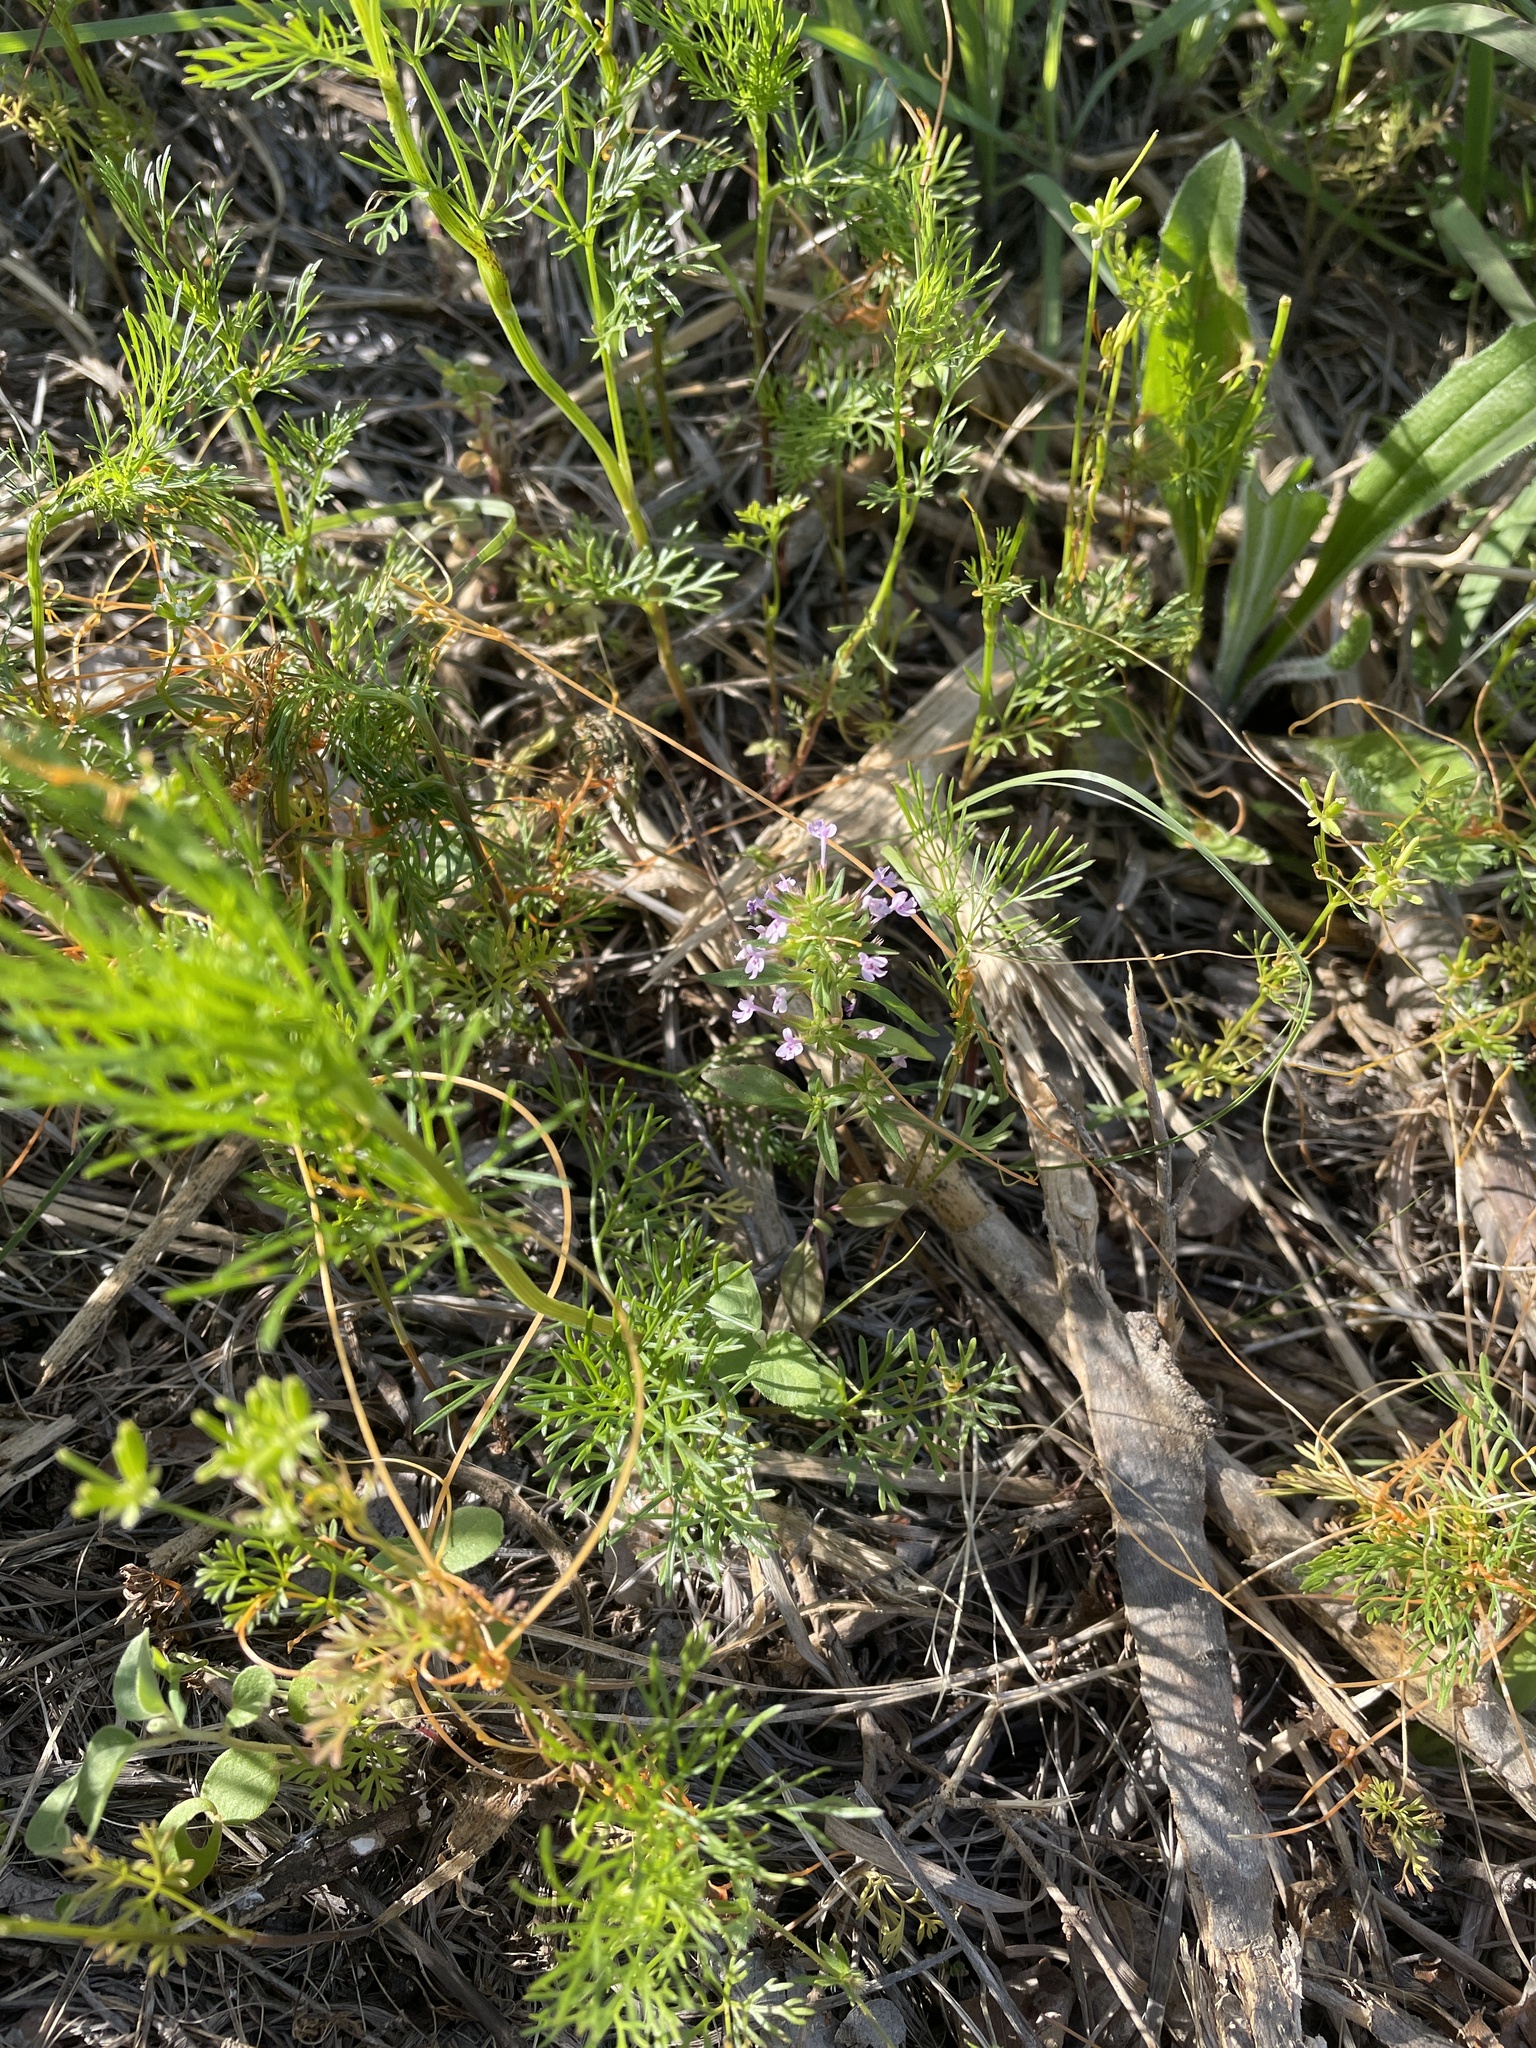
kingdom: Plantae
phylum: Tracheophyta
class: Magnoliopsida
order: Lamiales
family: Lamiaceae
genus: Hedeoma
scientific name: Hedeoma acinoides
